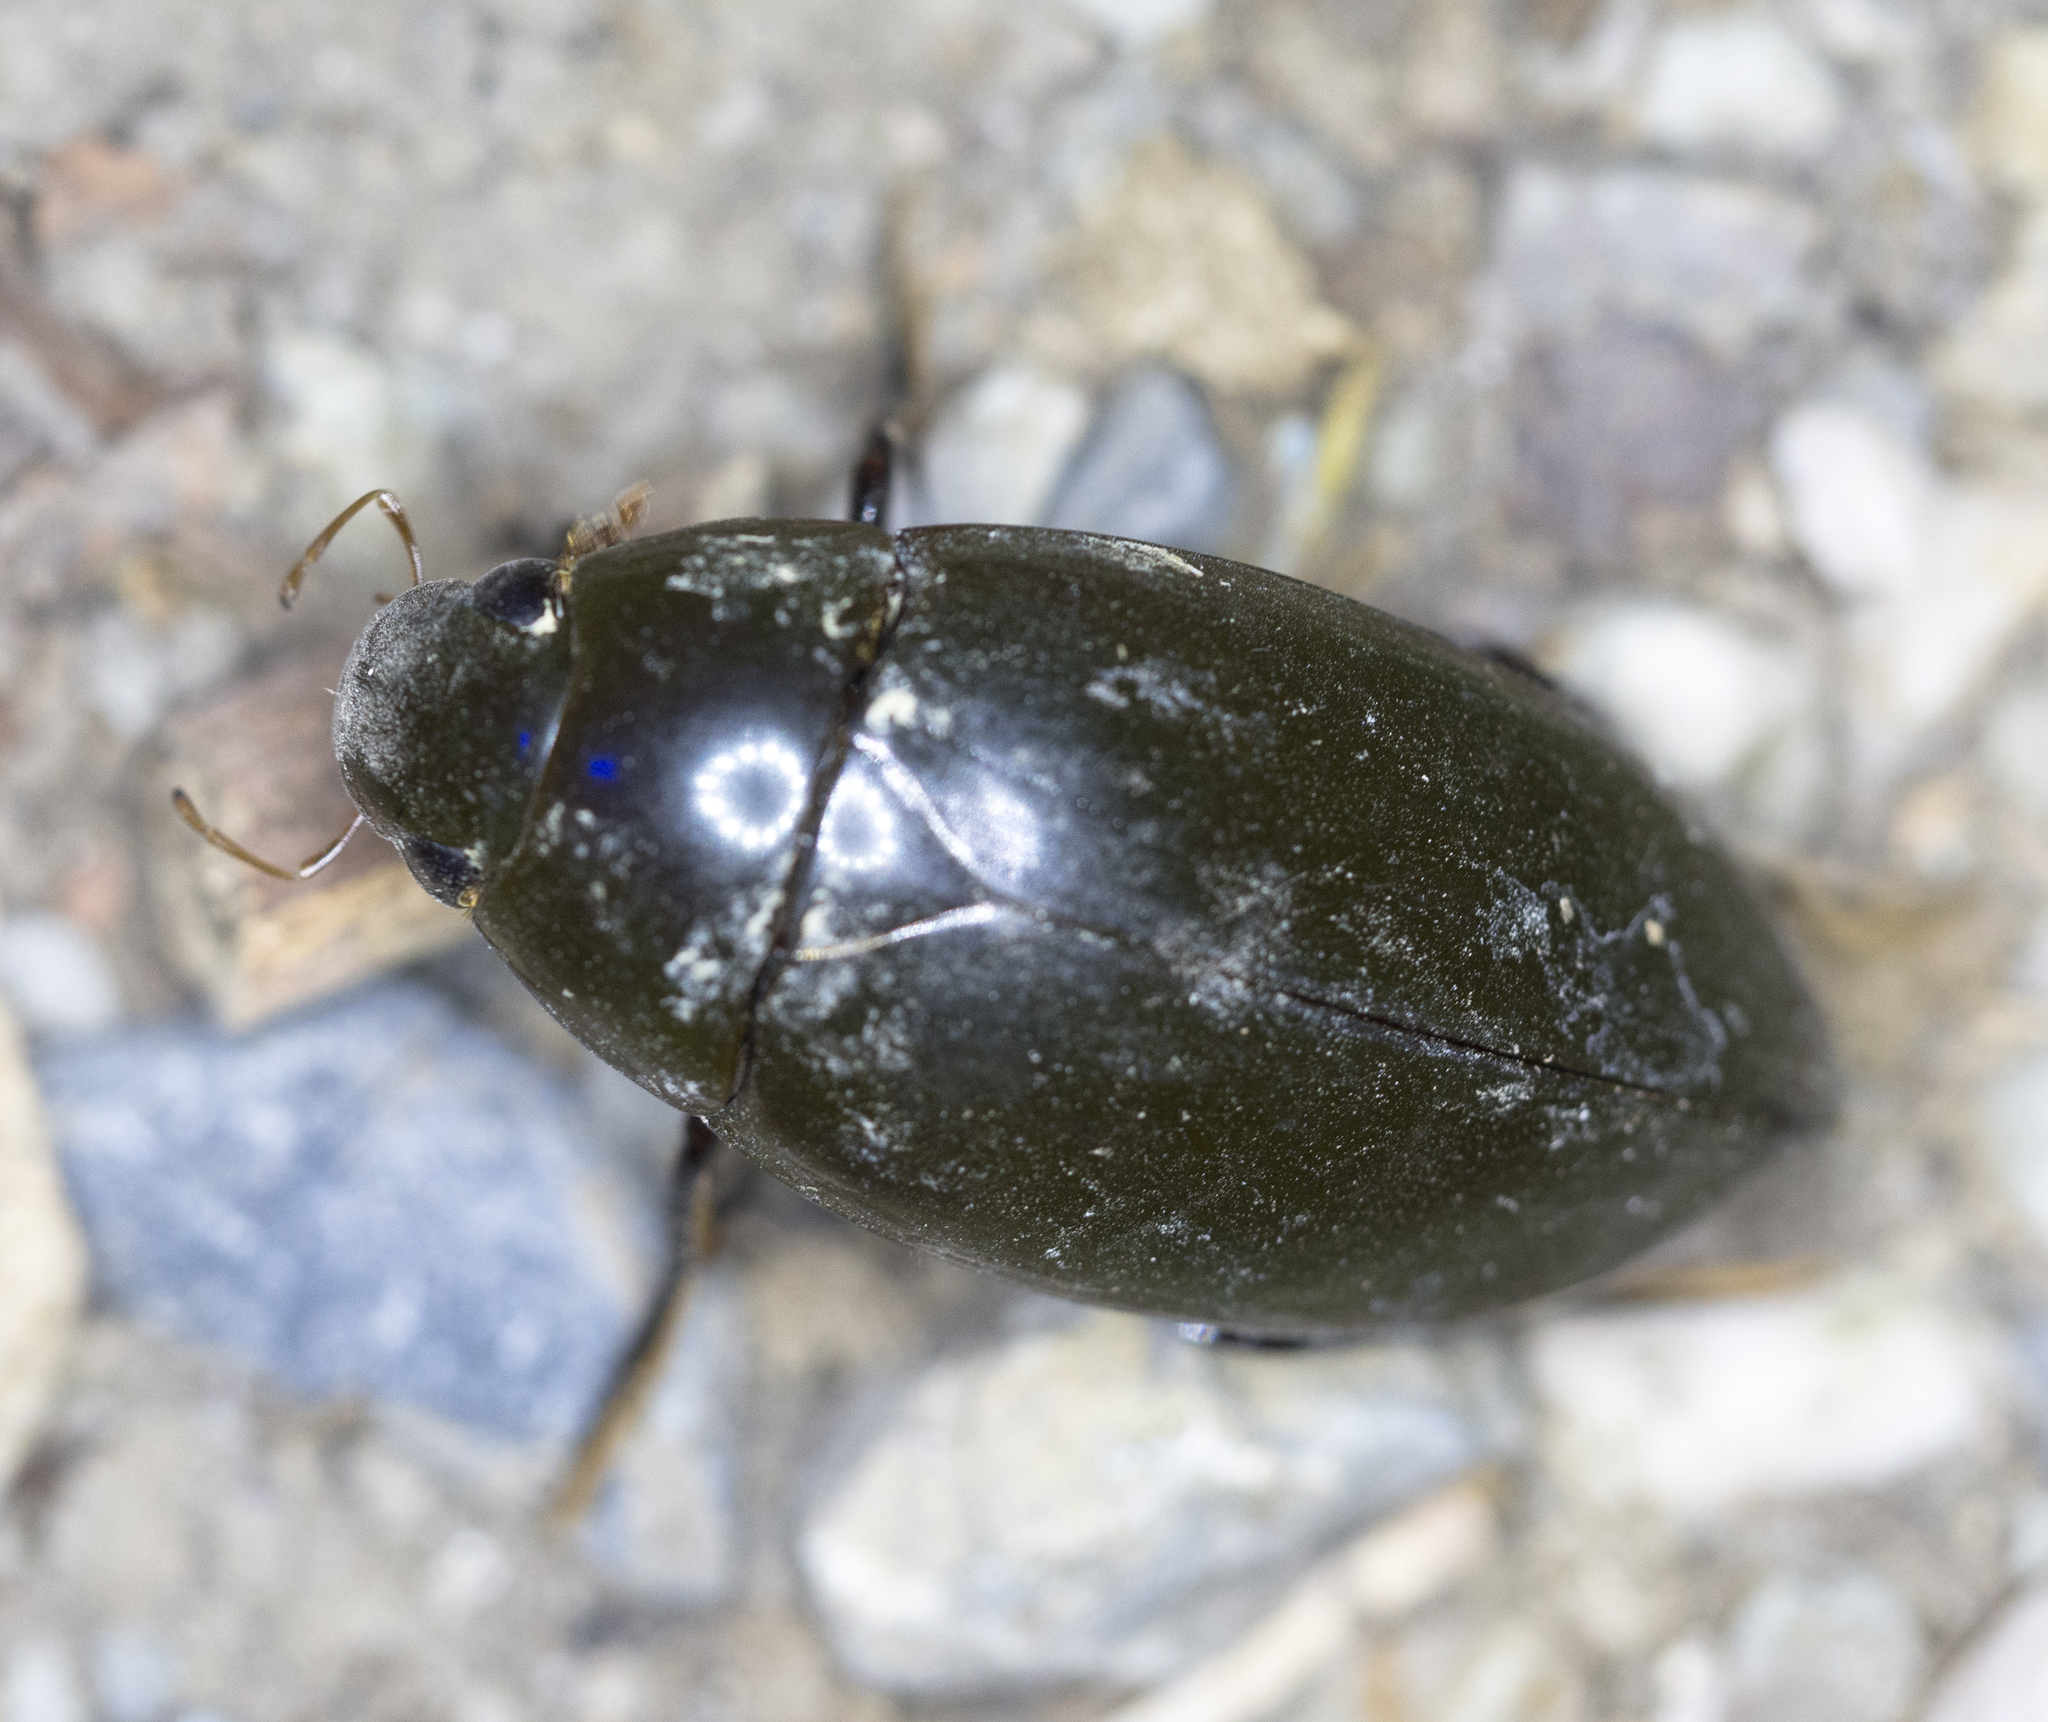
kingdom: Animalia
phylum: Arthropoda
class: Insecta
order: Coleoptera
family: Hydrophilidae
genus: Hydrophilus
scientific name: Hydrophilus triangularis
